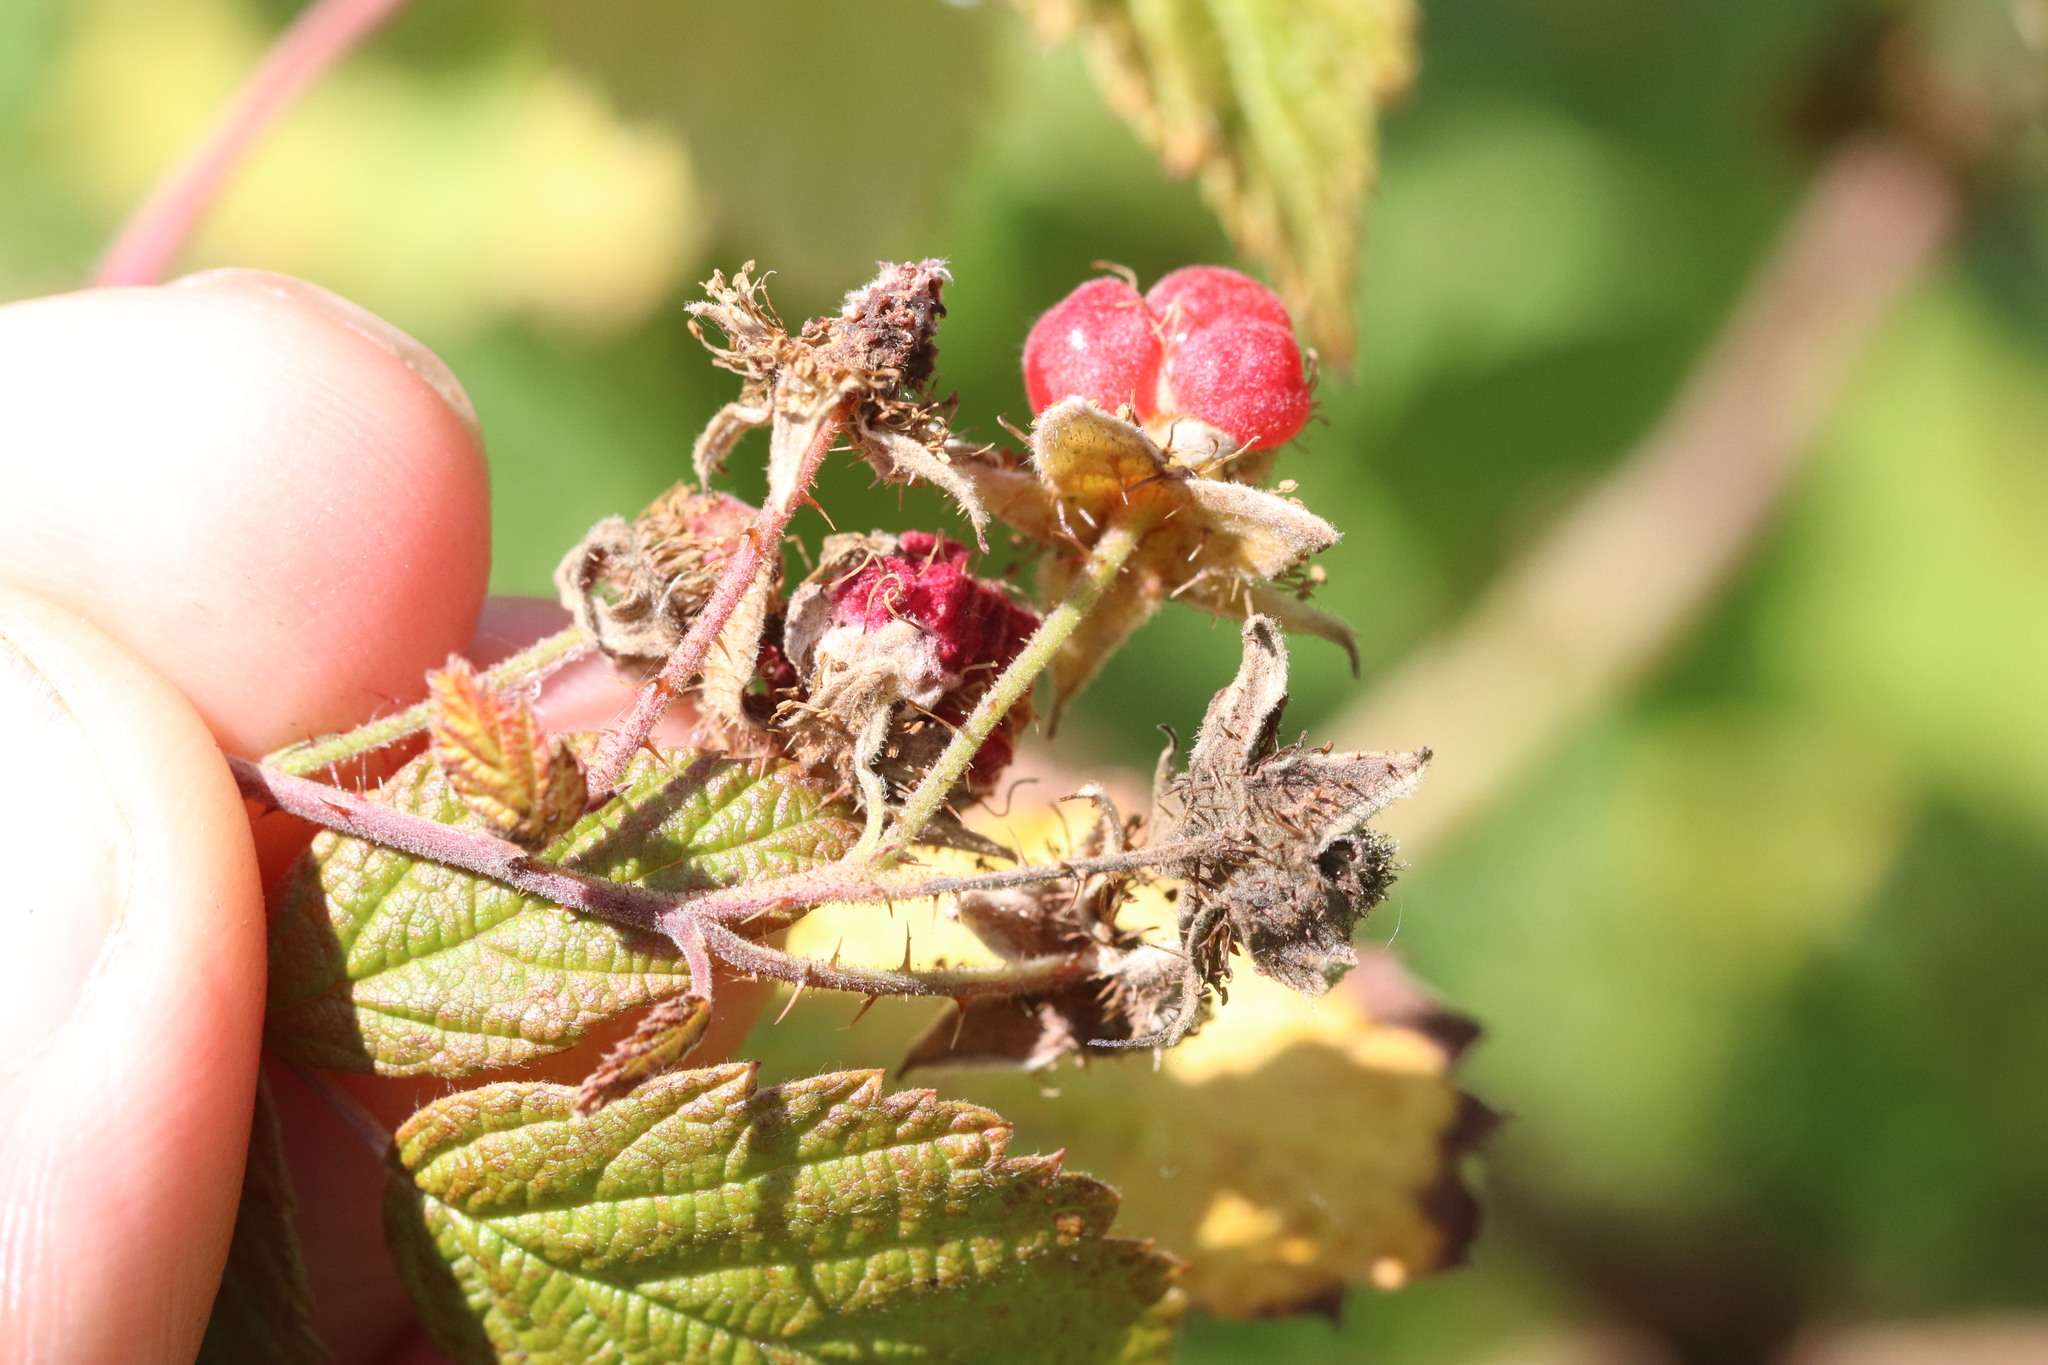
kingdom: Plantae
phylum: Tracheophyta
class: Magnoliopsida
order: Rosales
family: Rosaceae
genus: Rubus
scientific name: Rubus idaeus
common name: Raspberry
